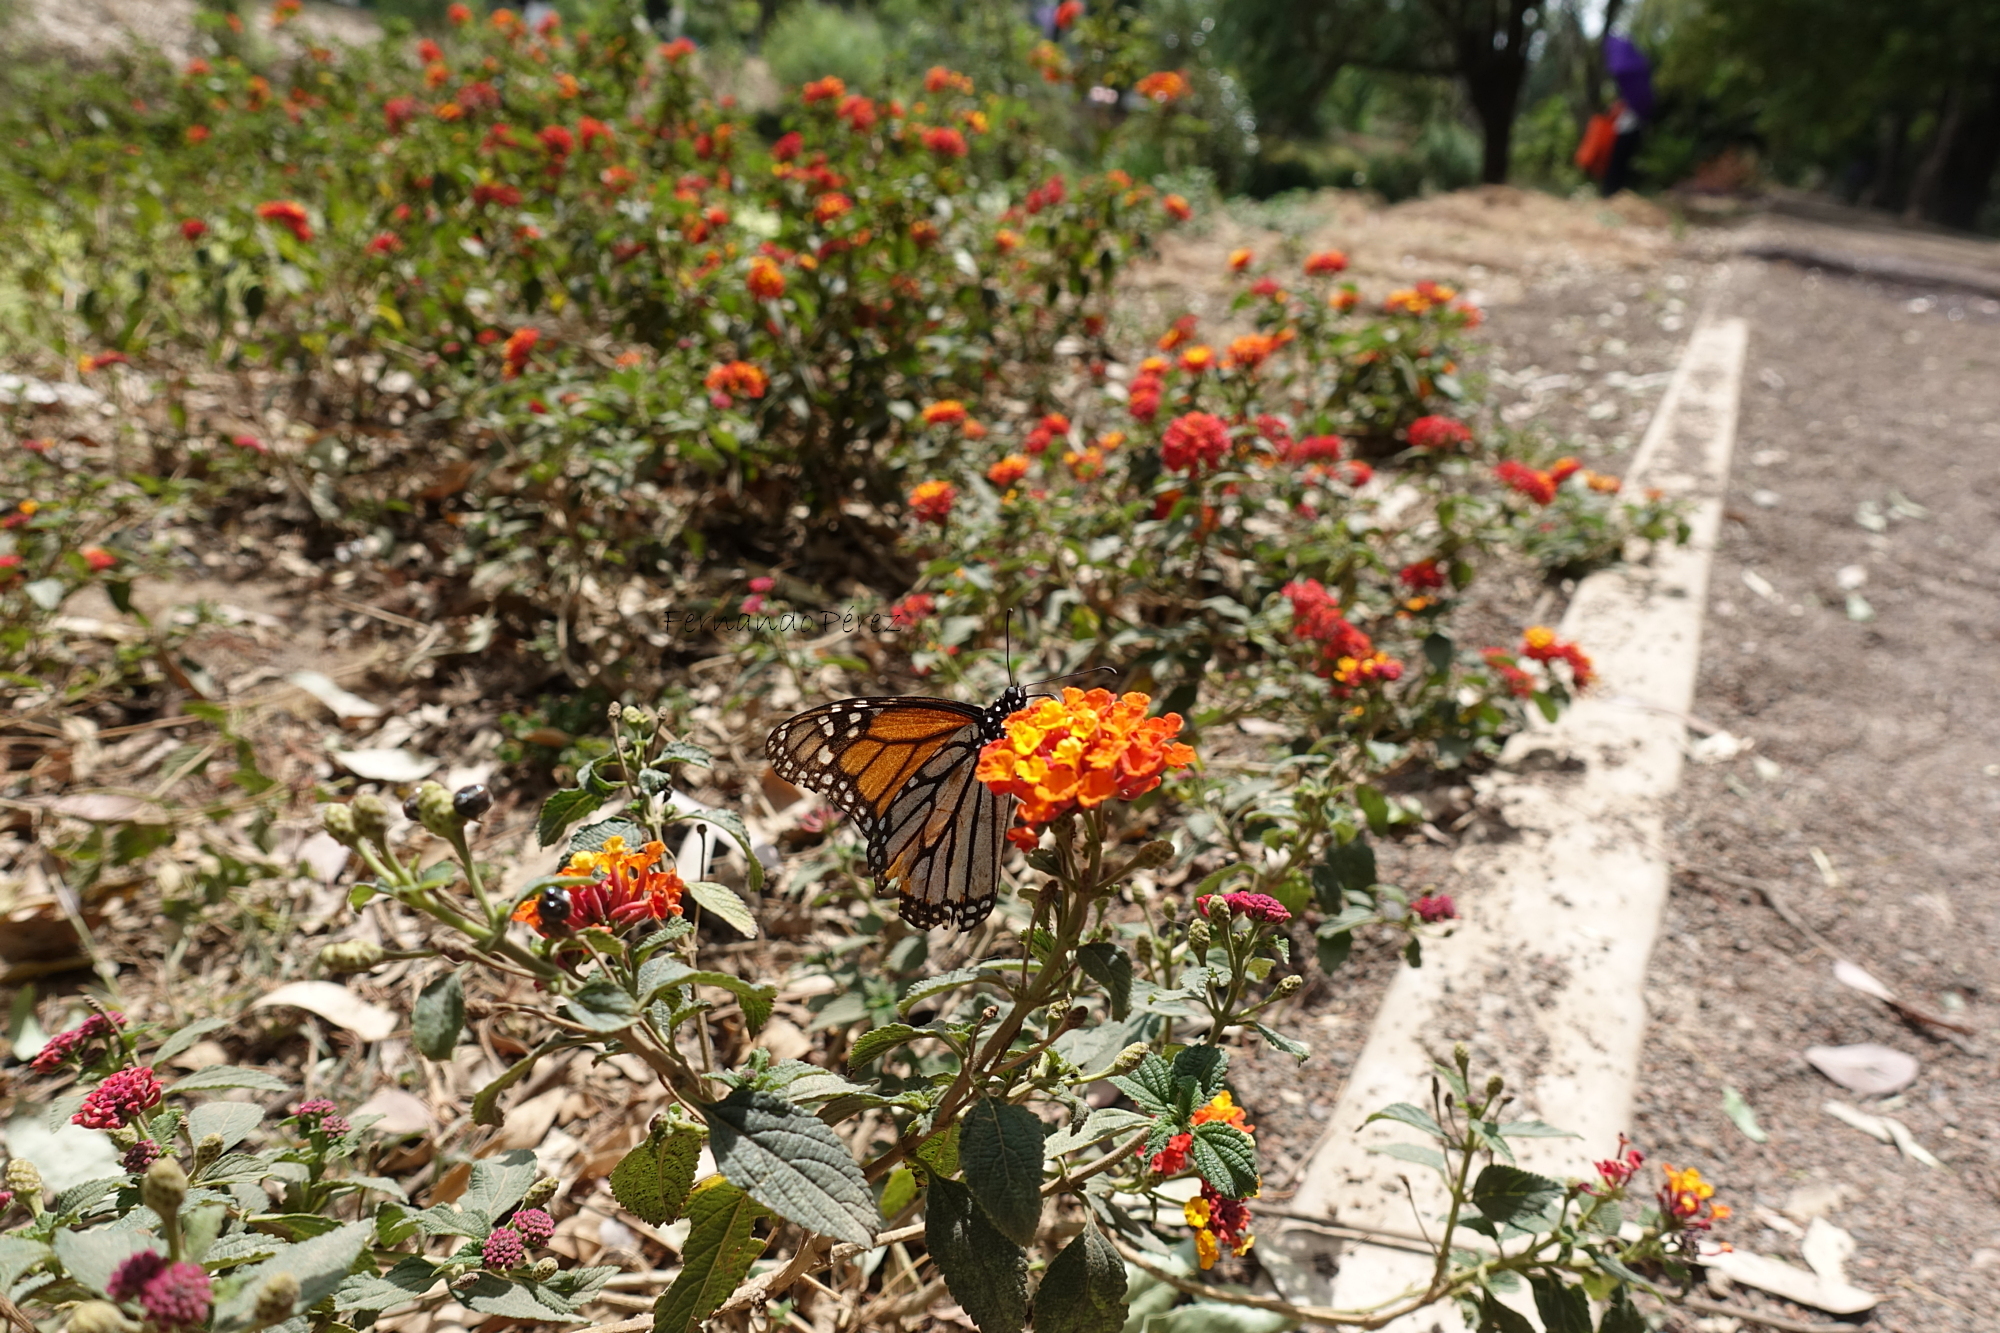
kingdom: Animalia
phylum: Arthropoda
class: Insecta
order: Lepidoptera
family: Nymphalidae
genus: Danaus
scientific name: Danaus plexippus
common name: Monarch
